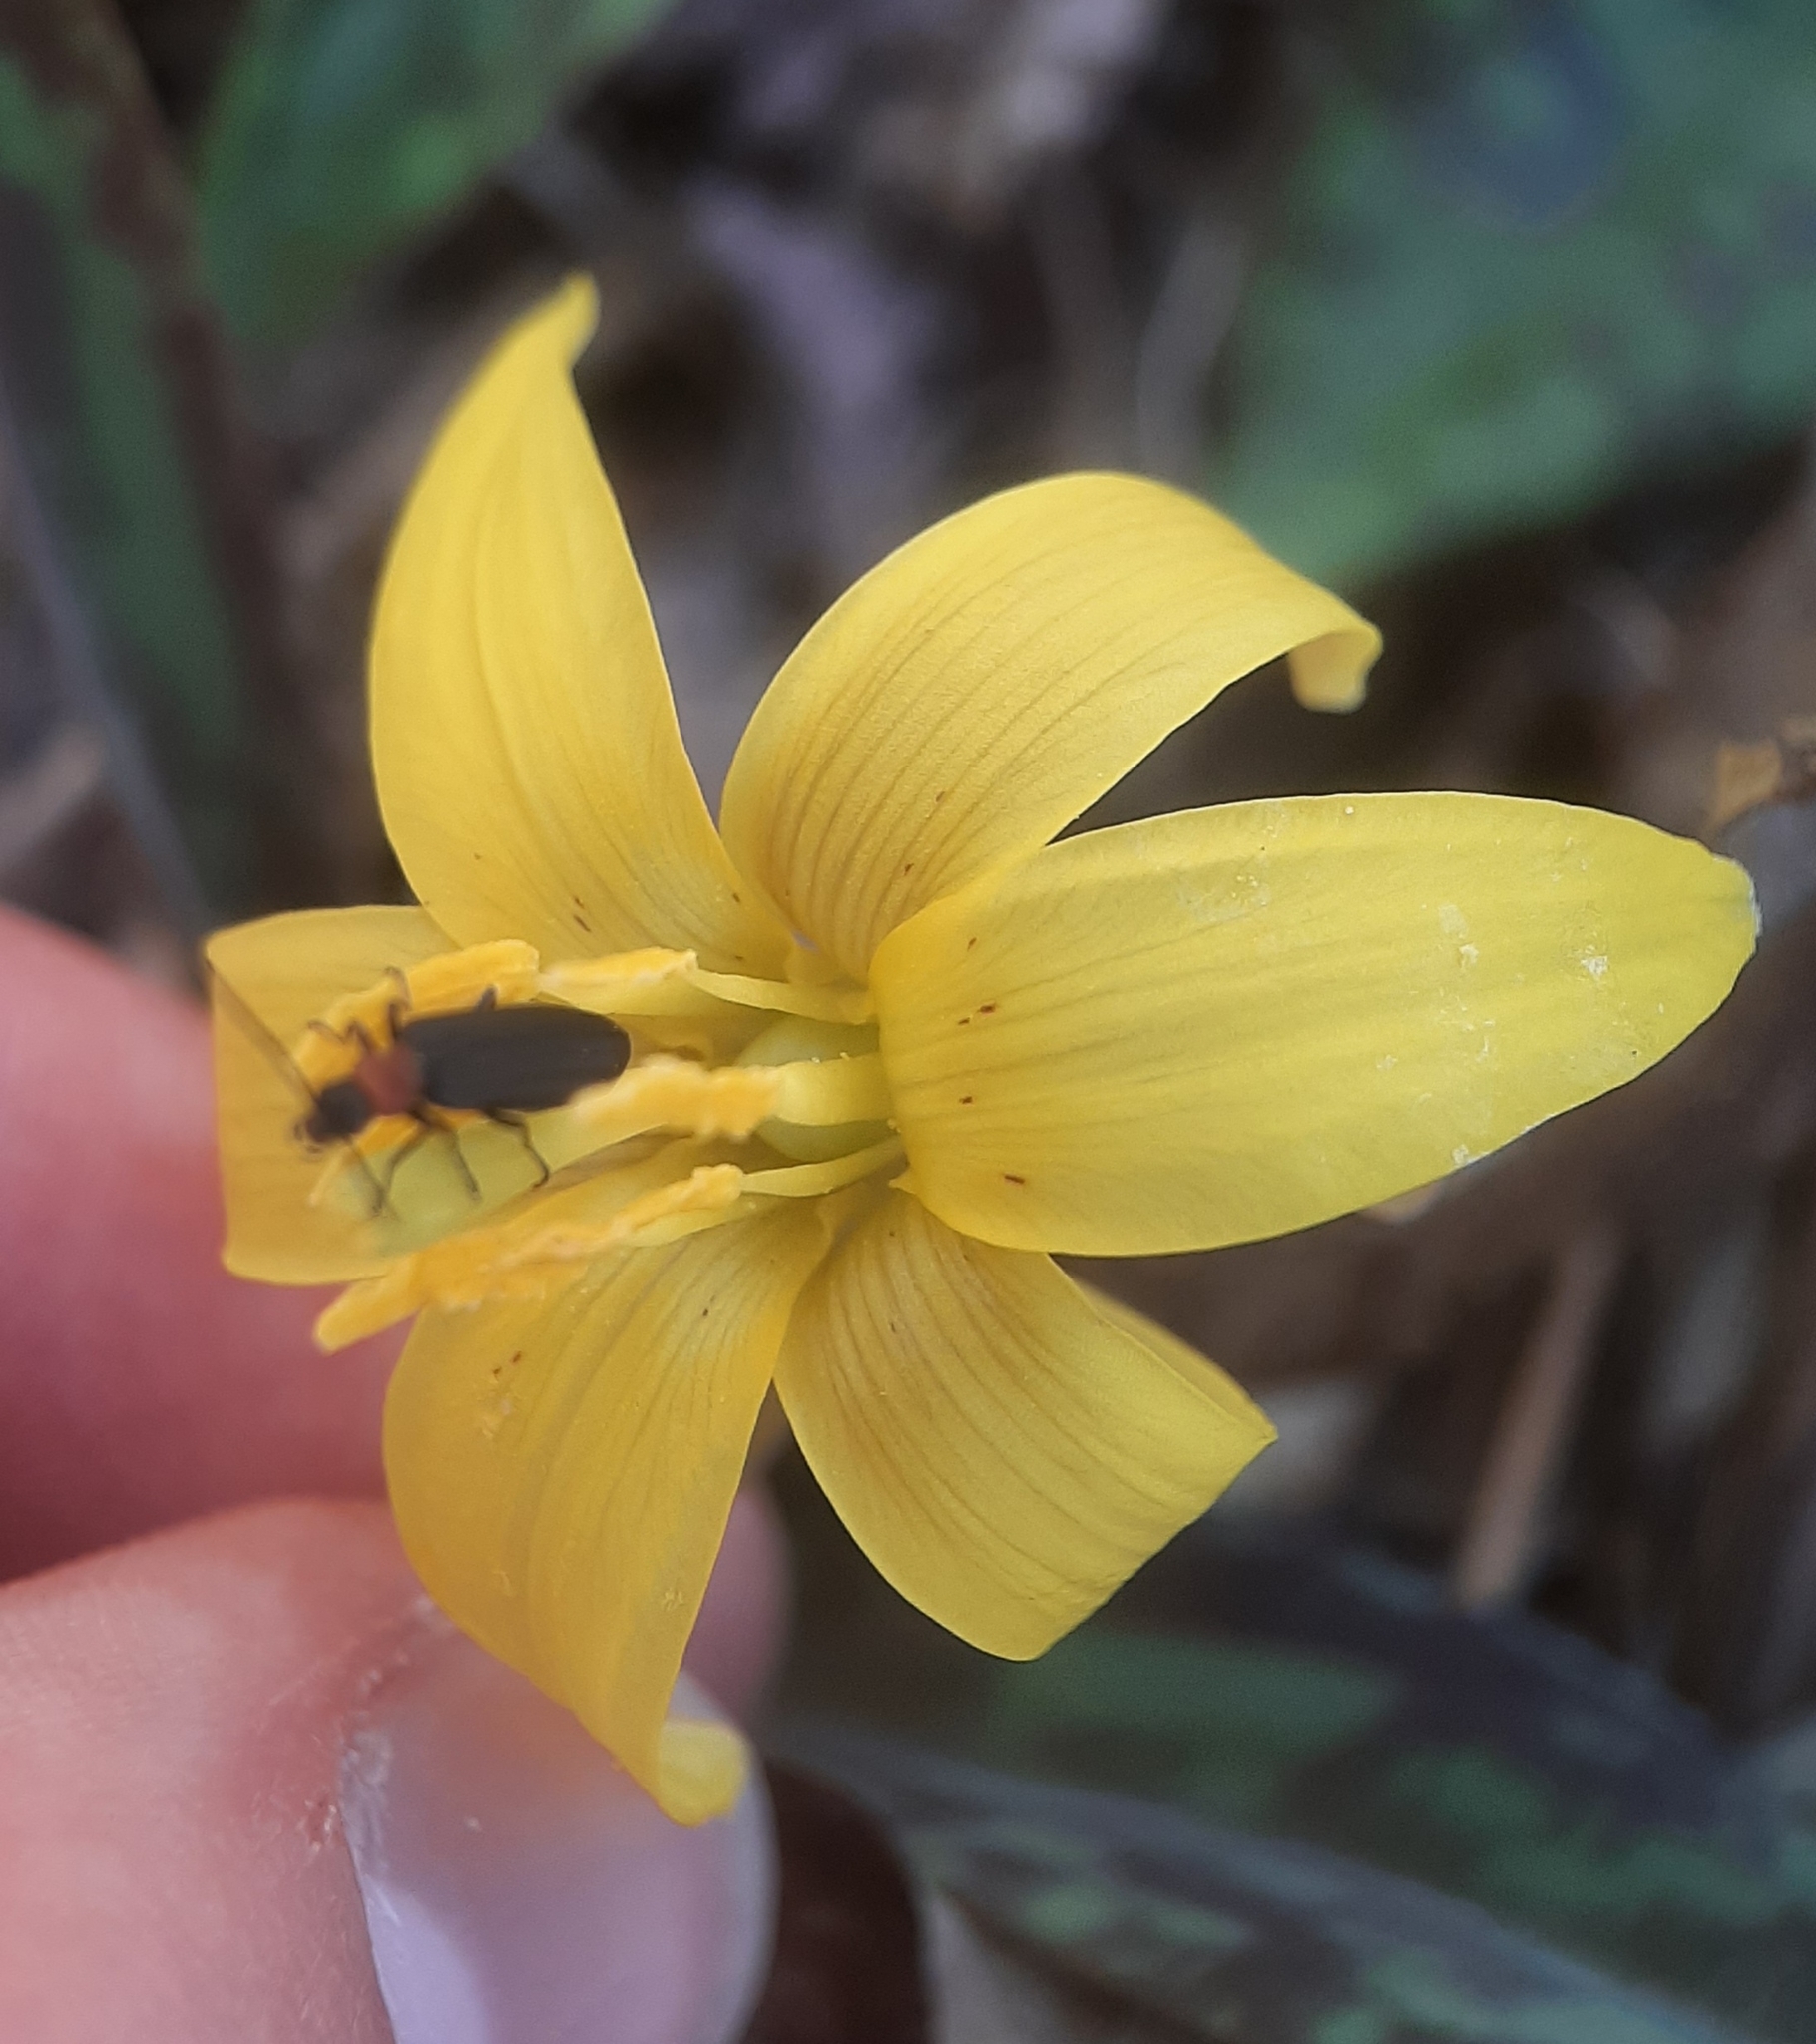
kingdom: Plantae
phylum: Tracheophyta
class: Liliopsida
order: Liliales
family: Liliaceae
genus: Erythronium
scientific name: Erythronium americanum
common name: Yellow adder's-tongue
